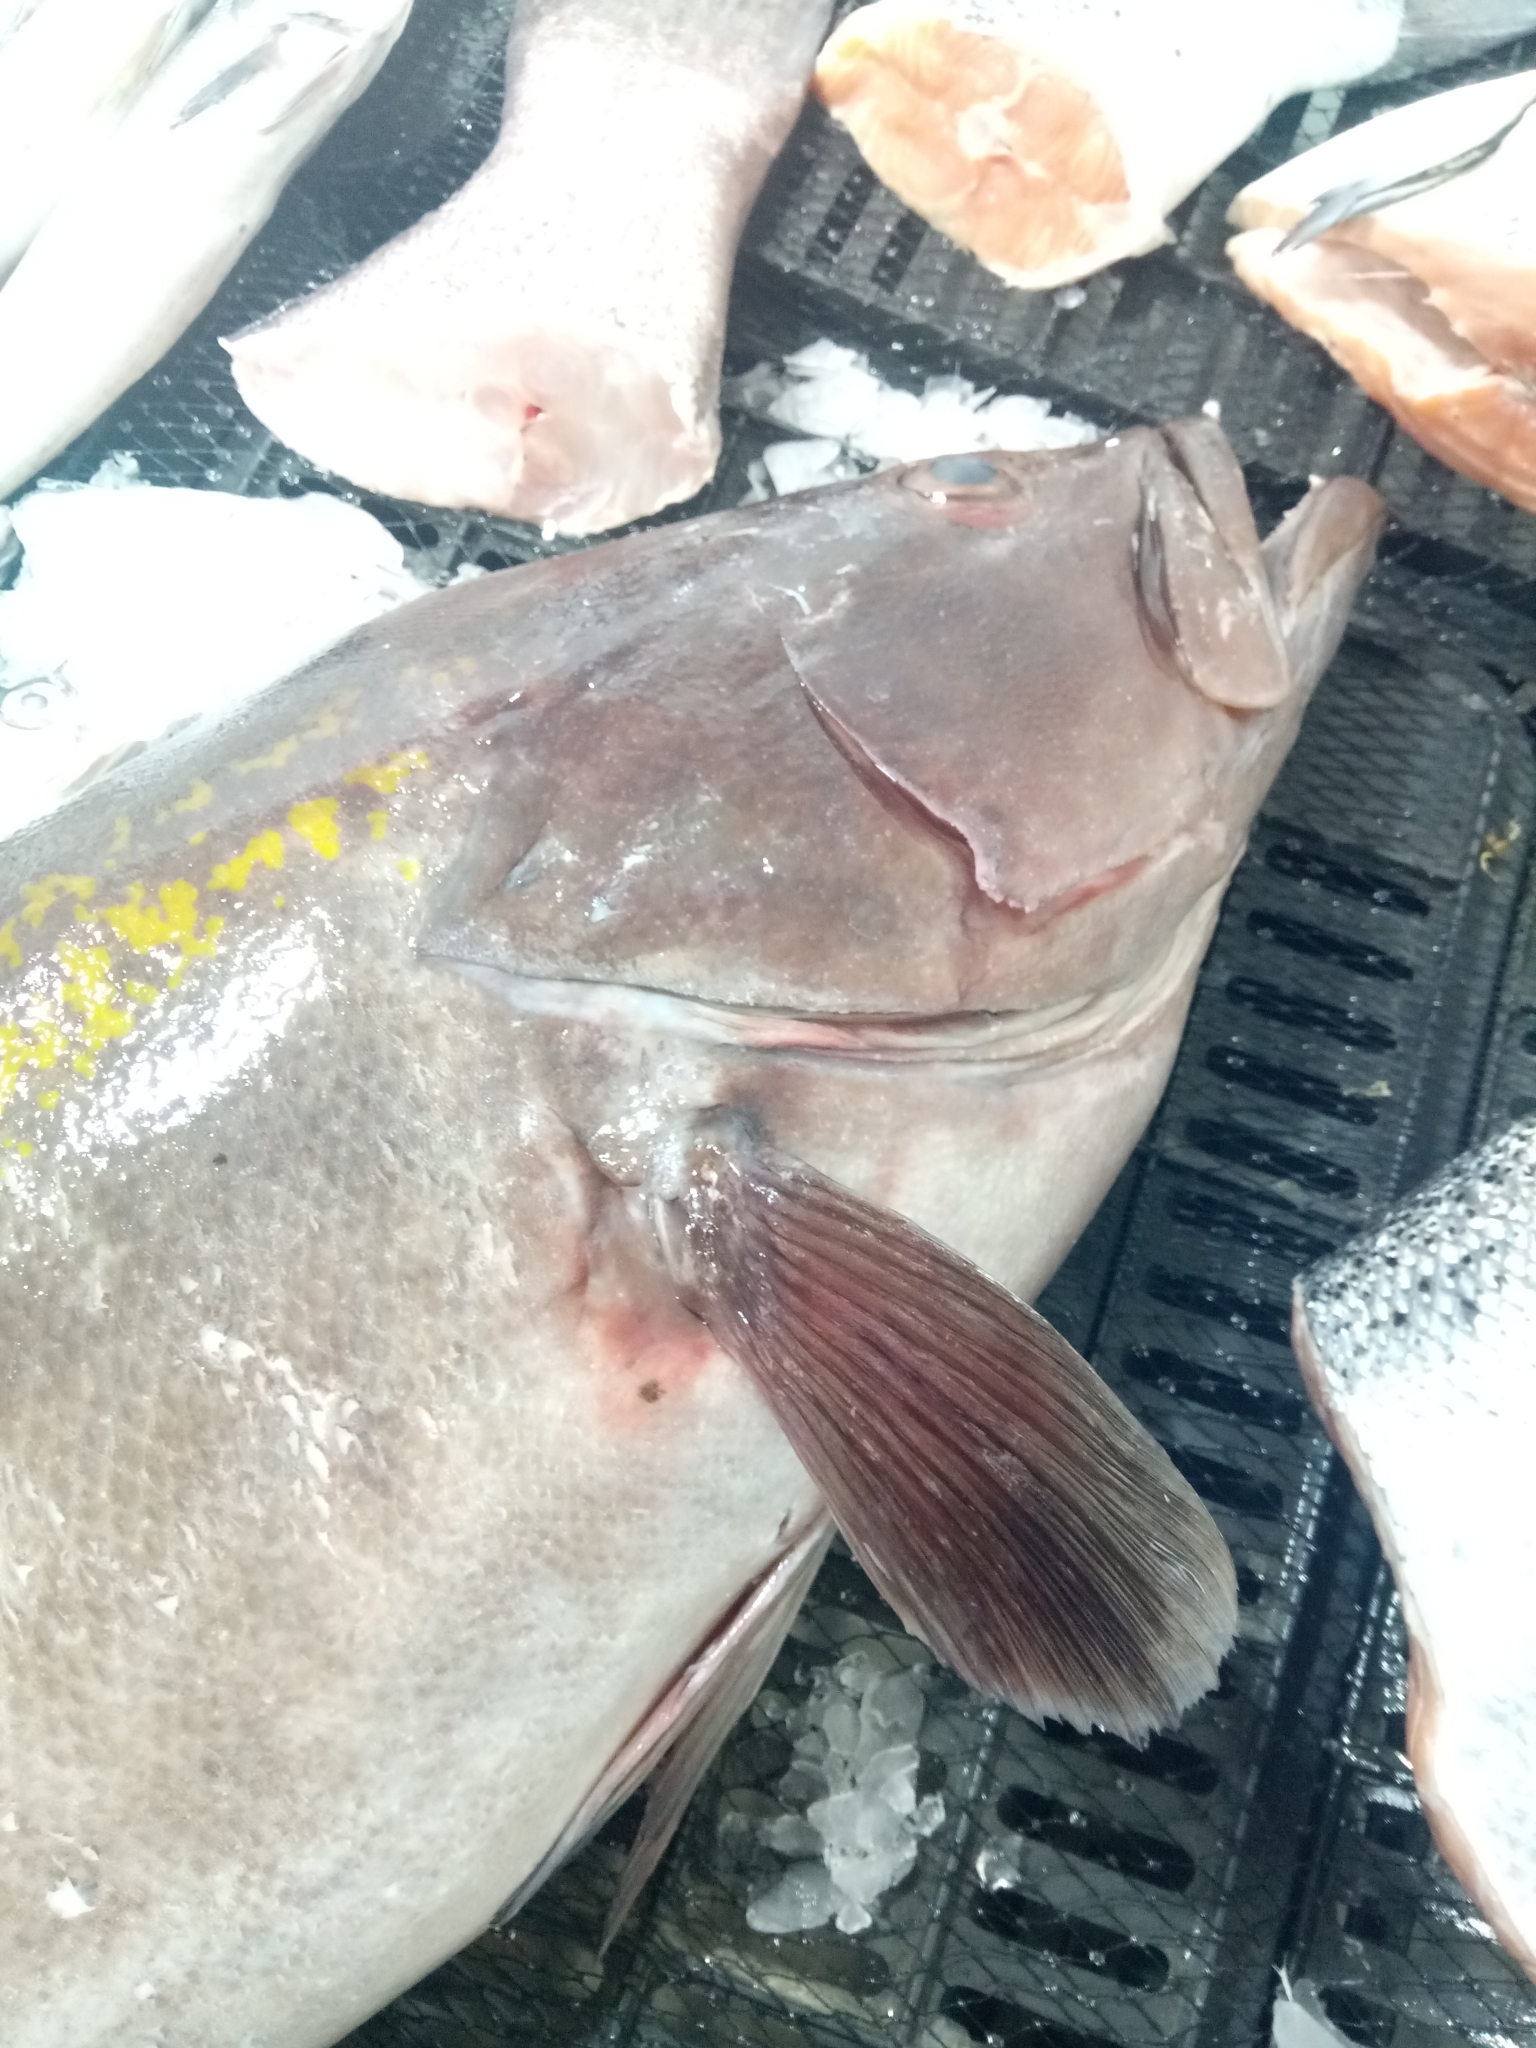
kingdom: Animalia
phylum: Chordata
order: Perciformes
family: Serranidae
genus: Epinephelus
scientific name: Epinephelus costae
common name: Goldblotch grouper
